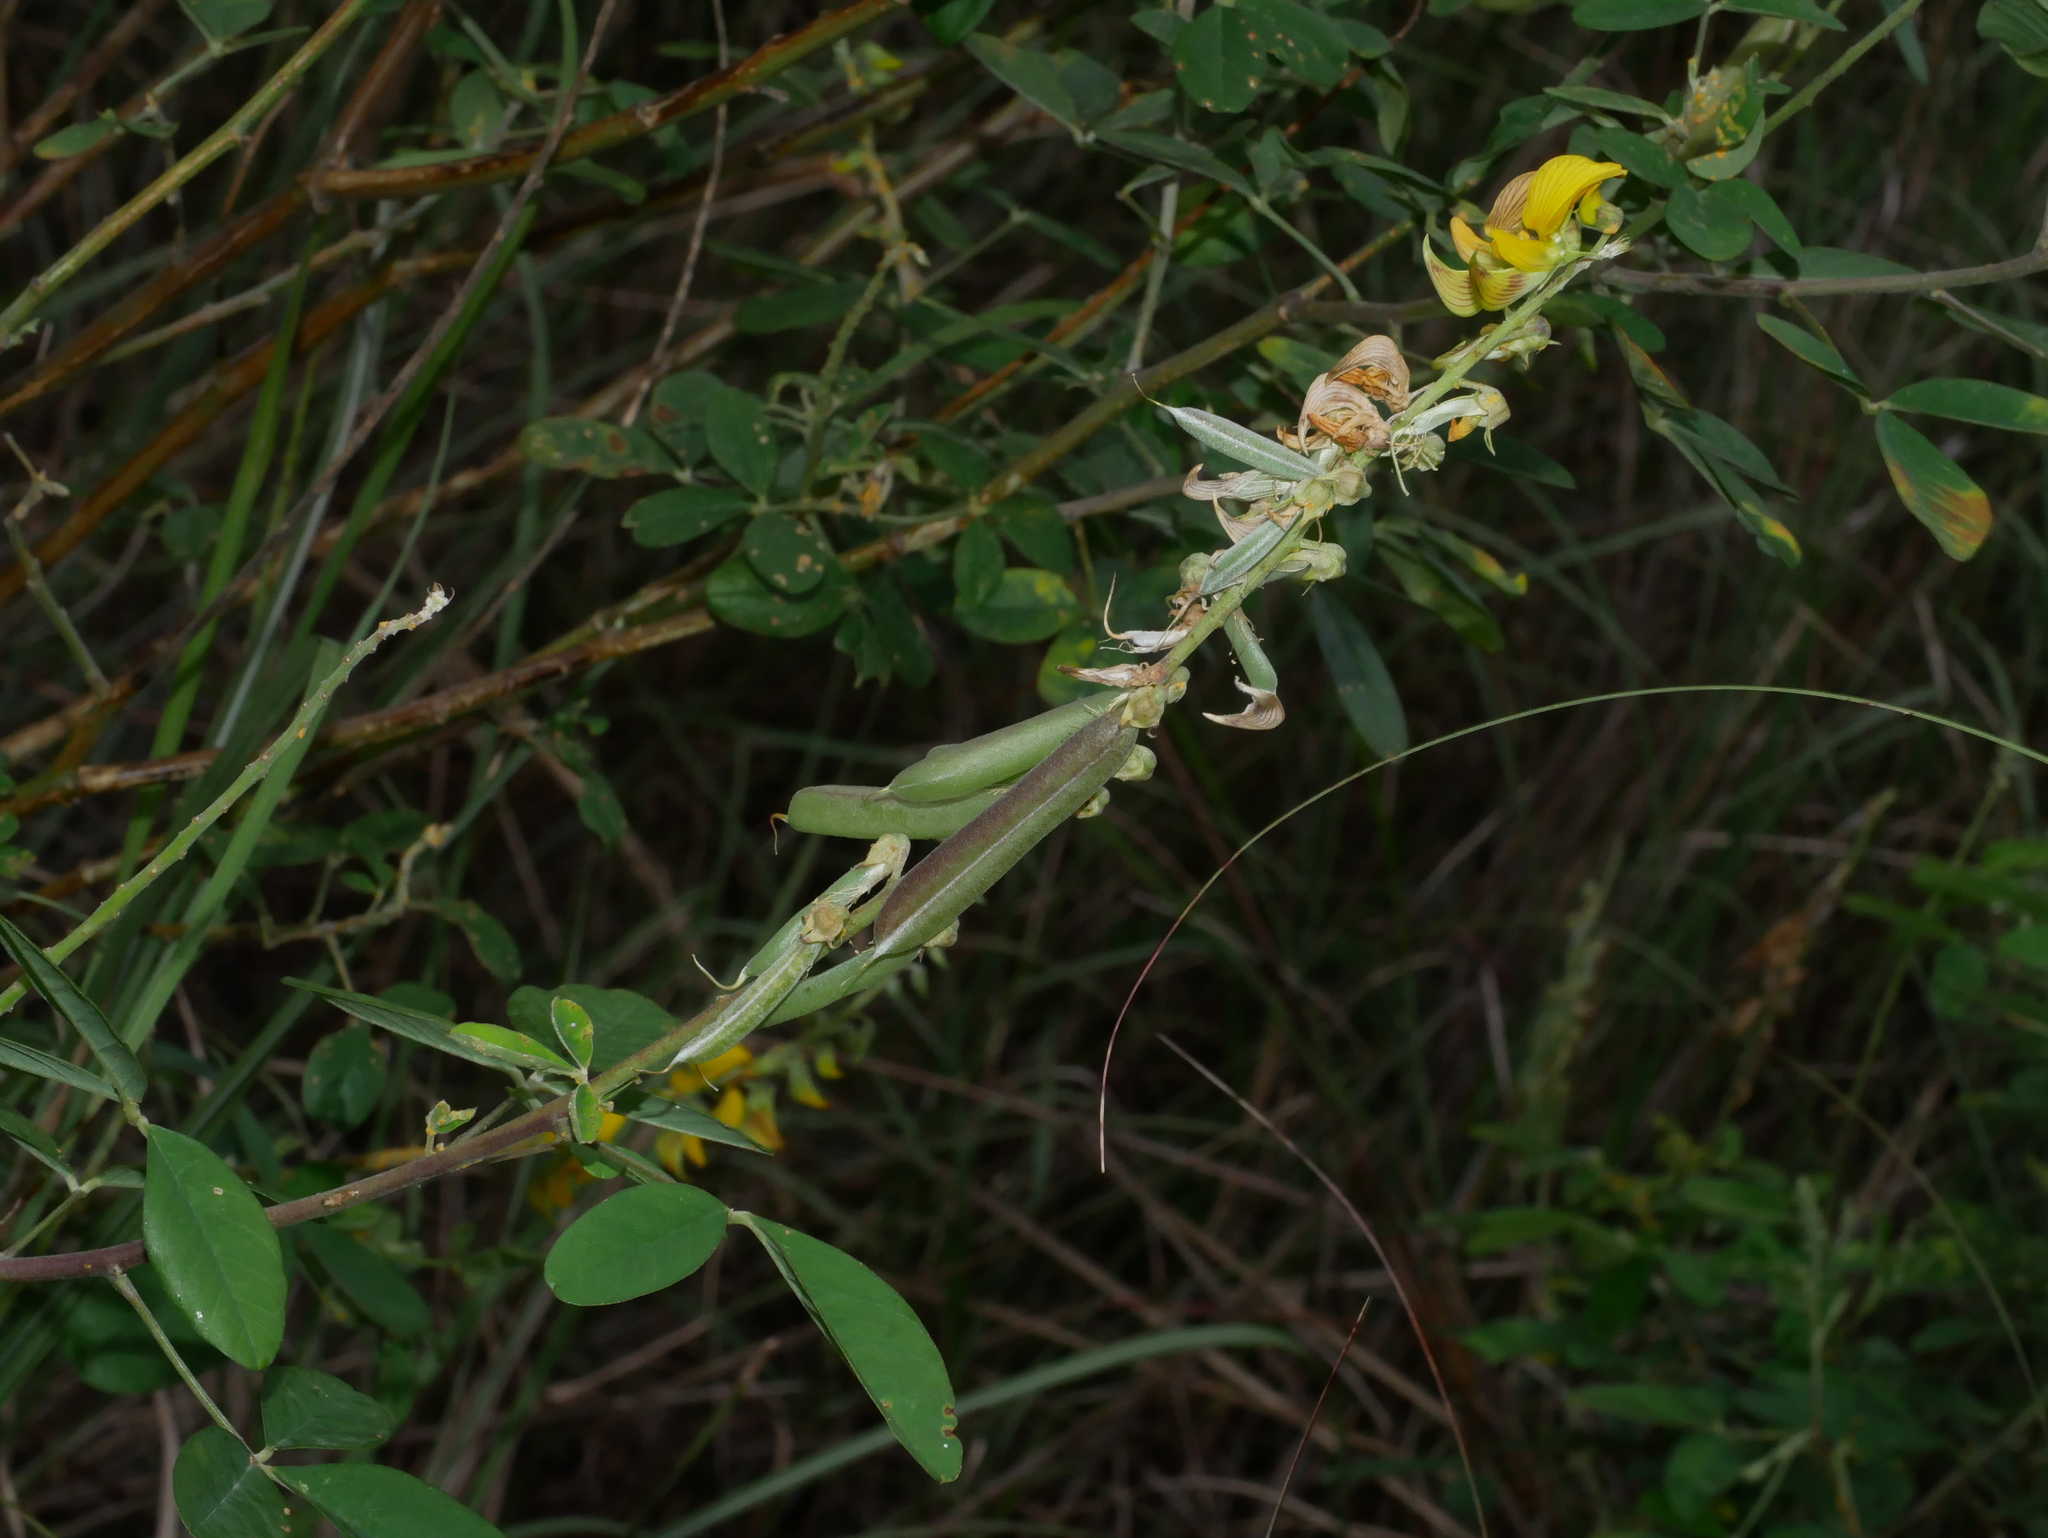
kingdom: Plantae
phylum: Tracheophyta
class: Magnoliopsida
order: Fabales
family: Fabaceae
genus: Crotalaria
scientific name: Crotalaria pallida
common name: Smooth rattlebox
